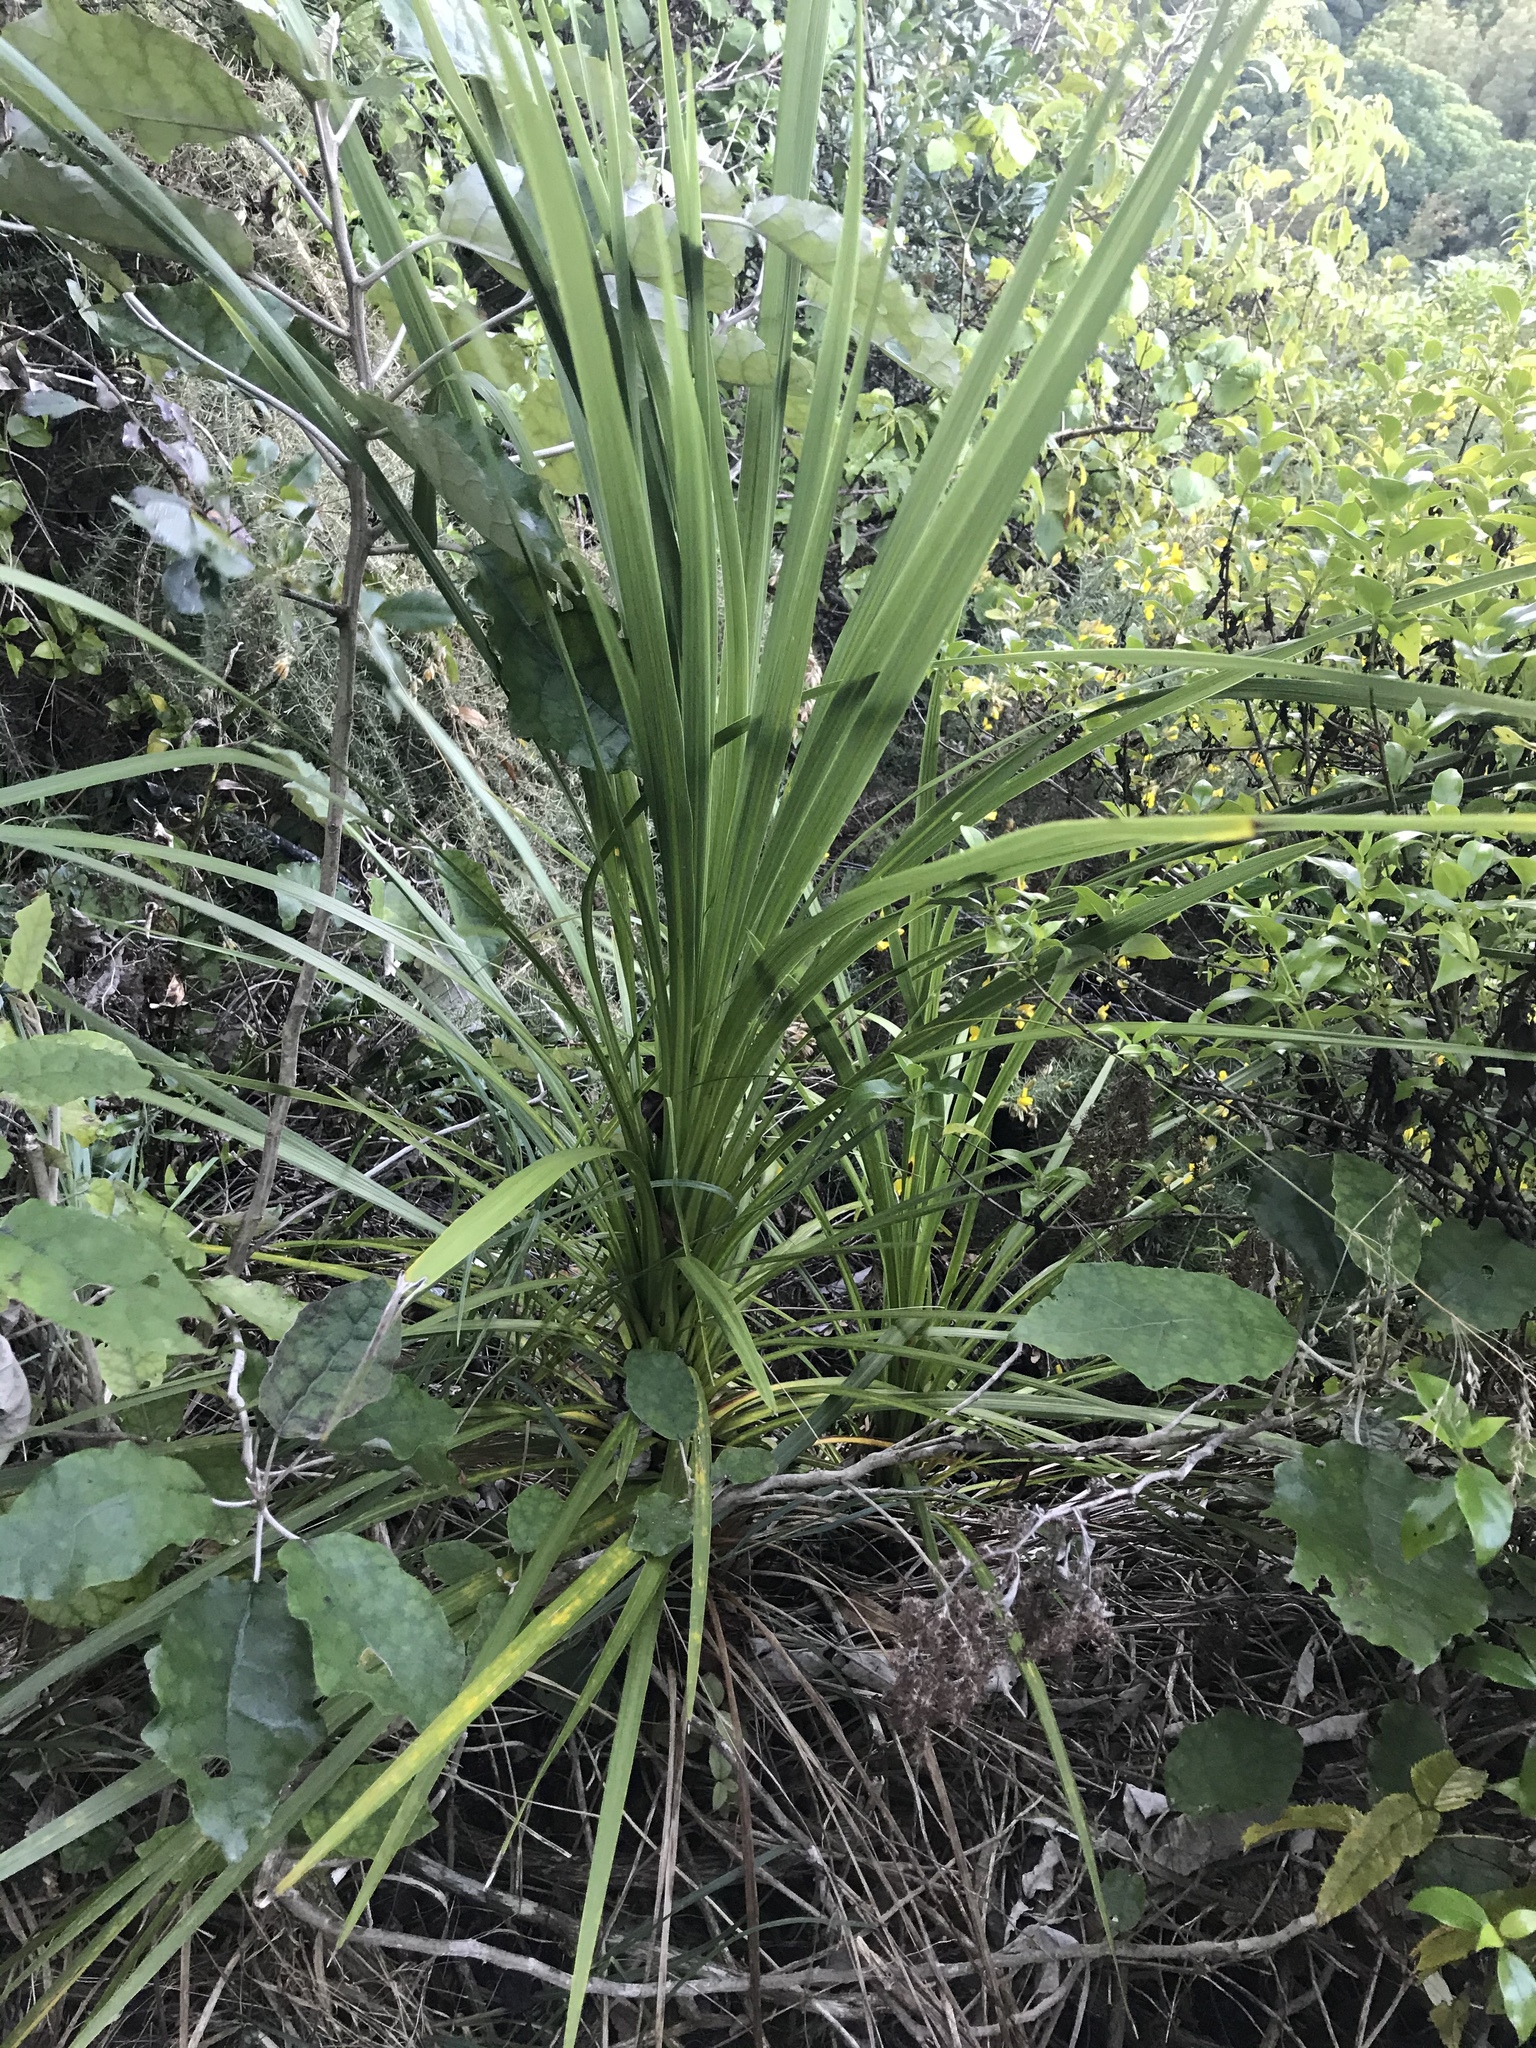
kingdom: Plantae
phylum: Tracheophyta
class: Liliopsida
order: Asparagales
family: Asparagaceae
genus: Cordyline
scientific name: Cordyline australis
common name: Cabbage-palm
